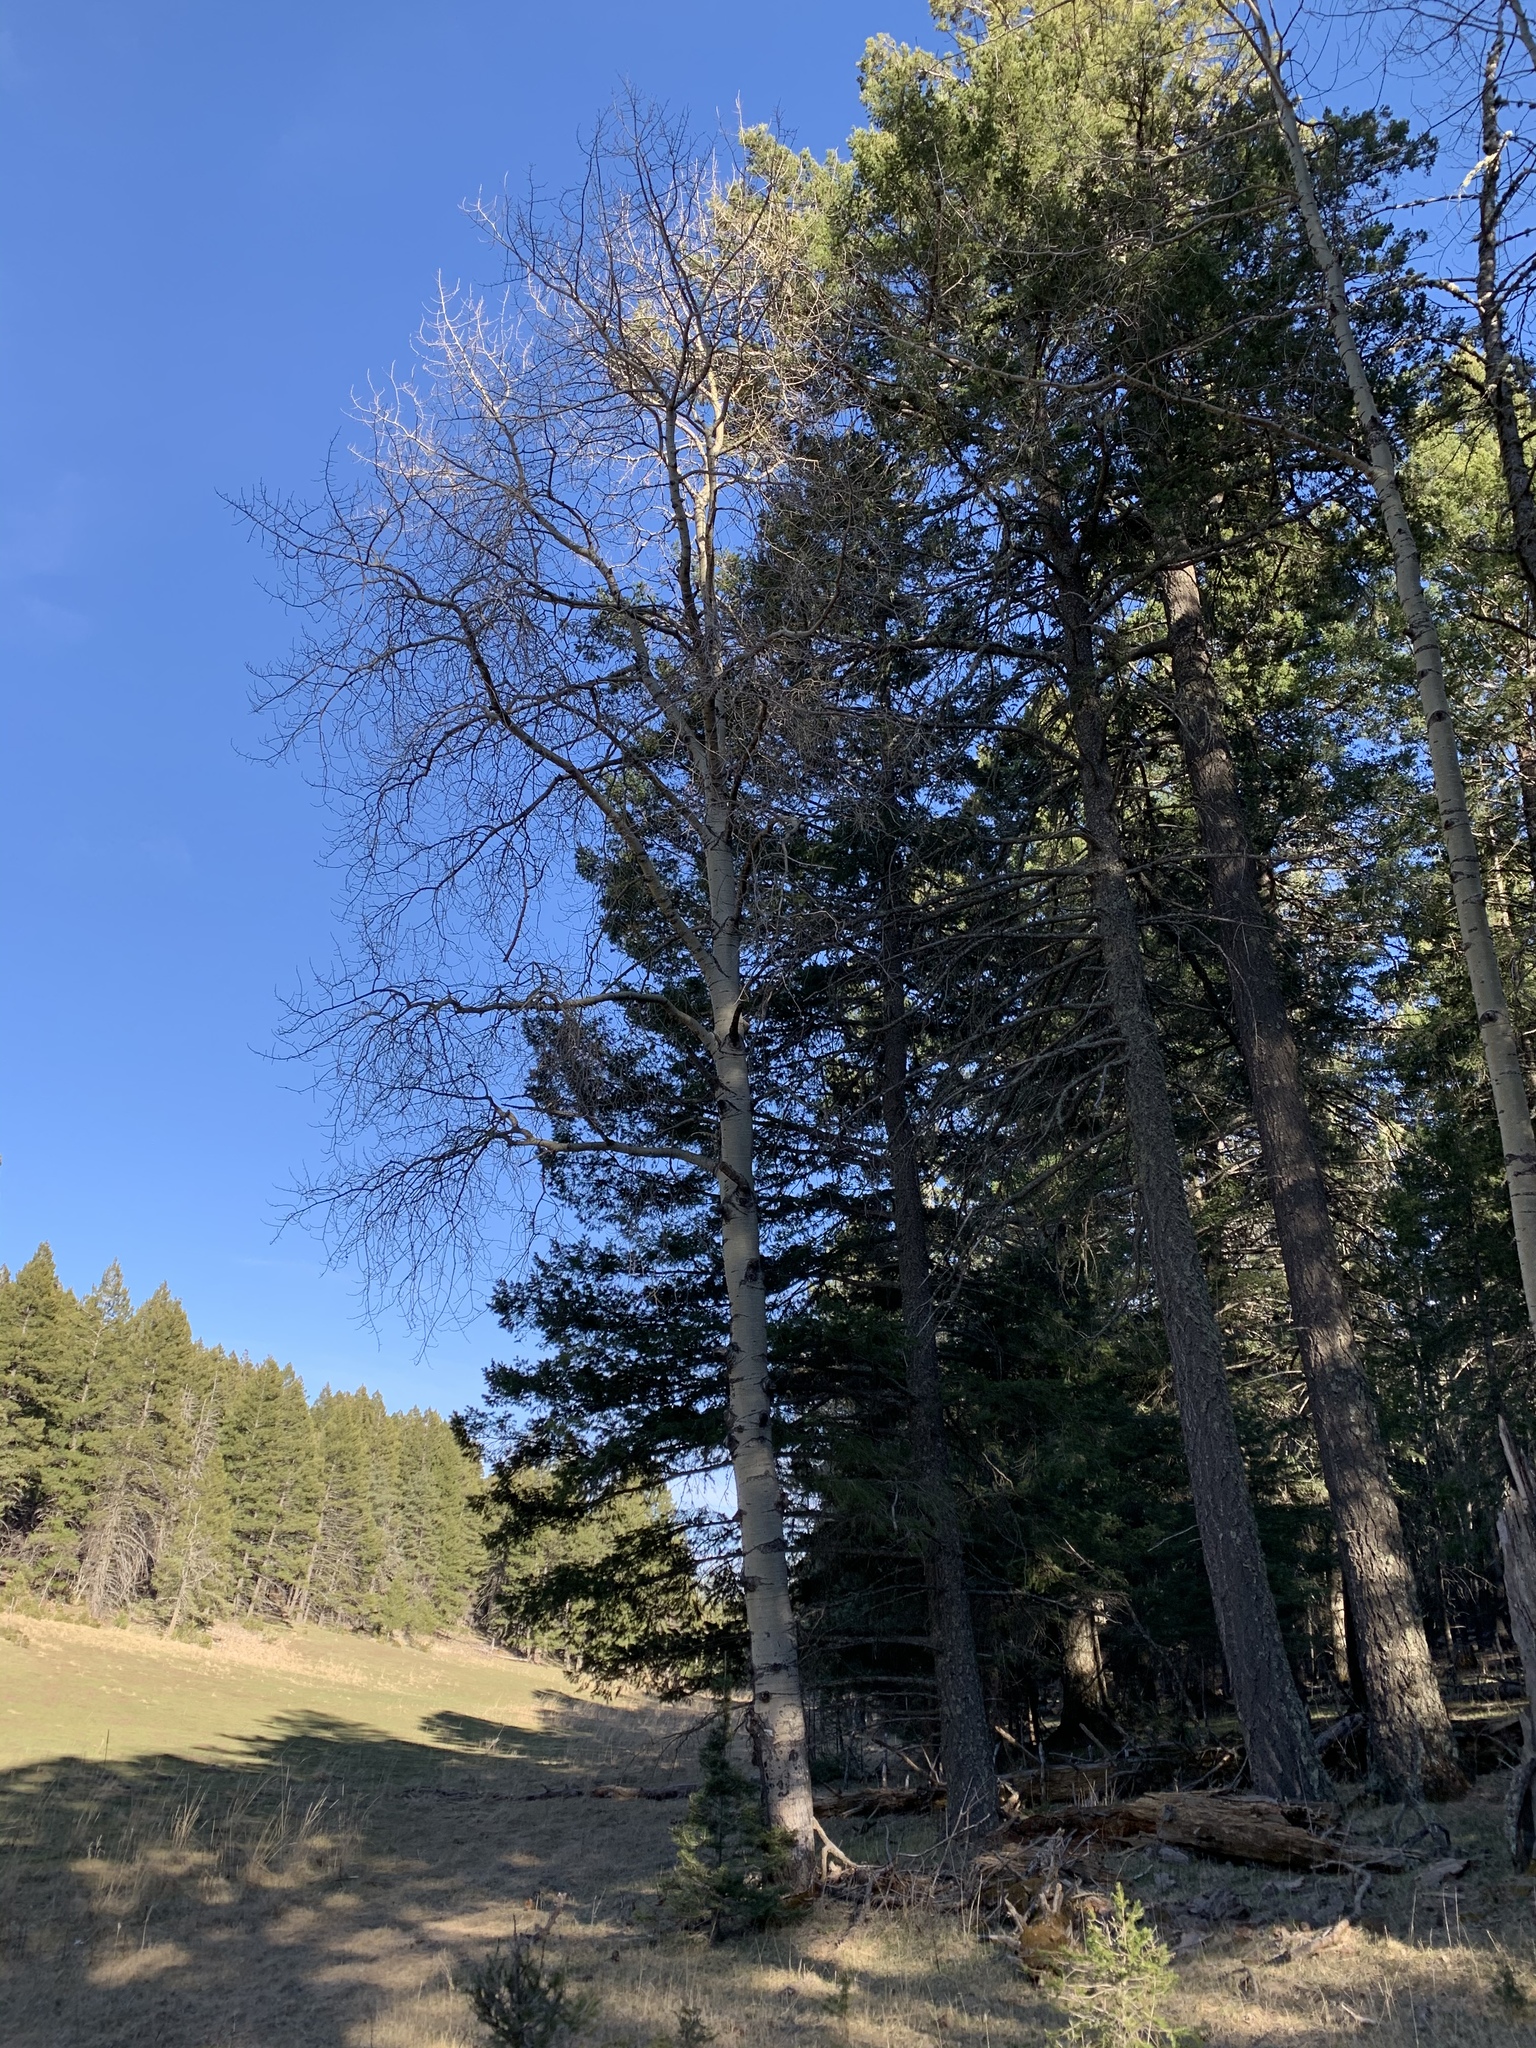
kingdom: Plantae
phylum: Tracheophyta
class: Magnoliopsida
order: Malpighiales
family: Salicaceae
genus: Populus
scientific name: Populus tremuloides
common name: Quaking aspen
